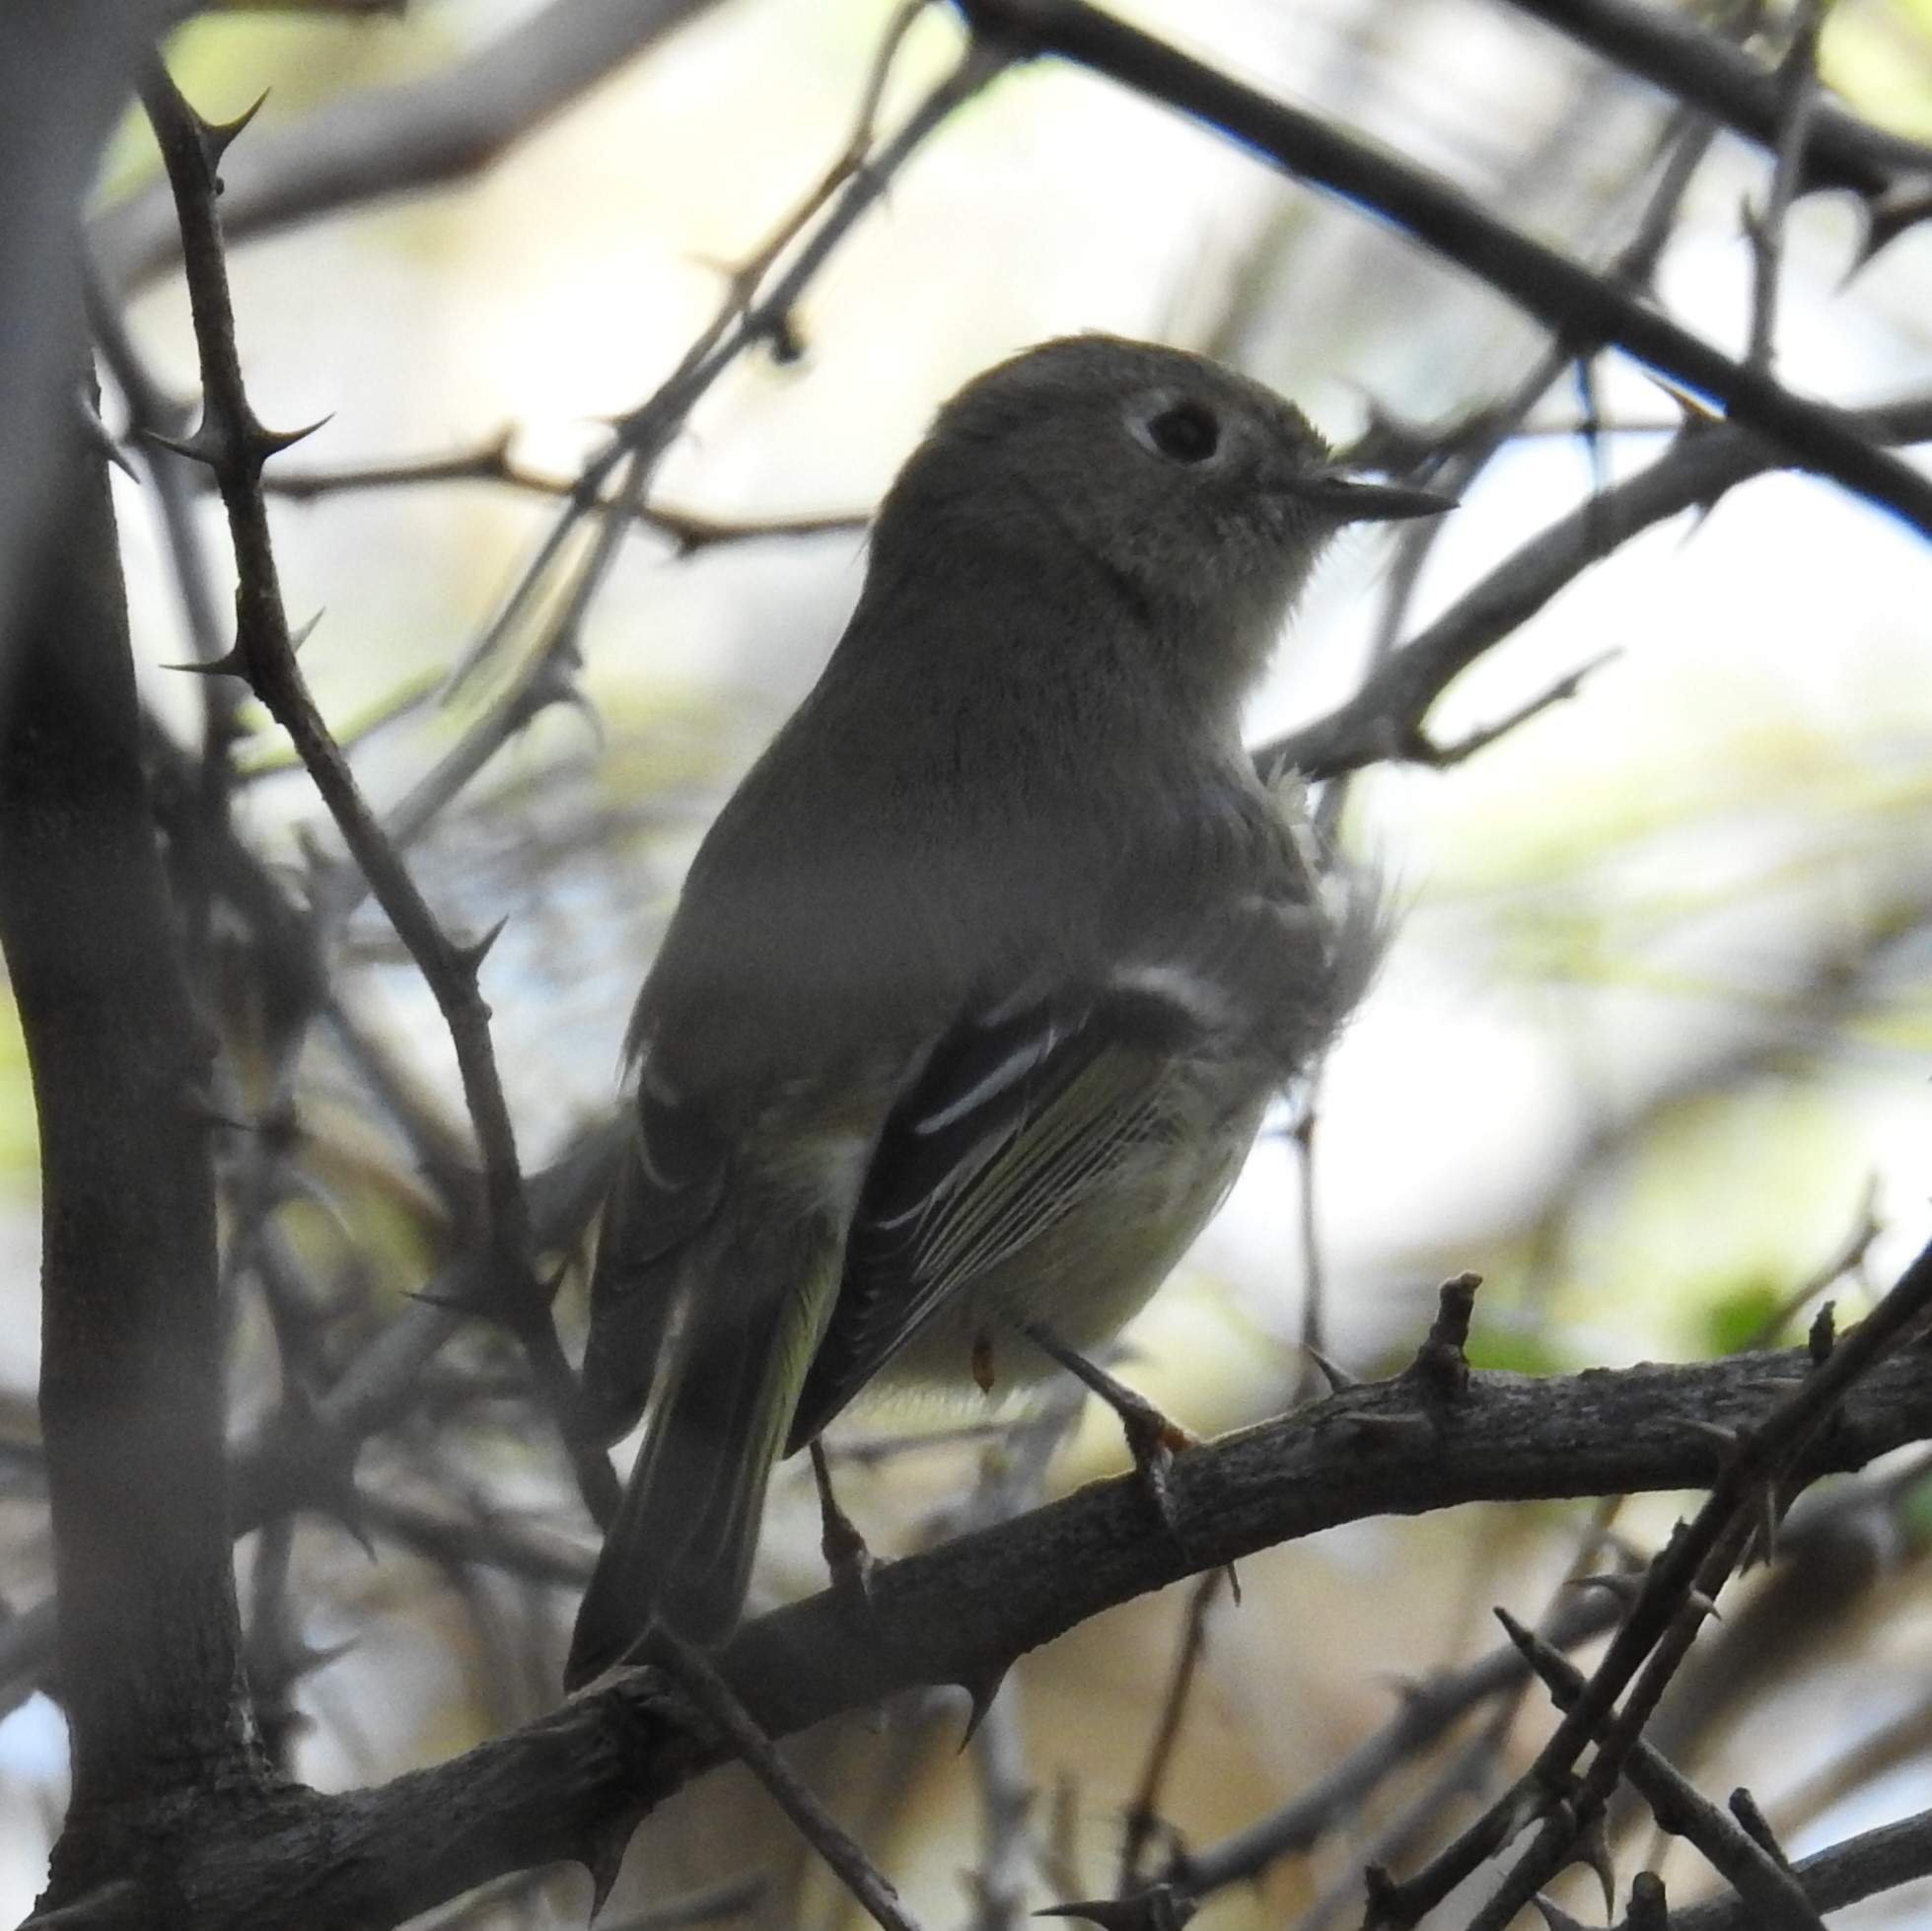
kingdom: Animalia
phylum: Chordata
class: Aves
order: Passeriformes
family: Regulidae
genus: Regulus
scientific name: Regulus calendula
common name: Ruby-crowned kinglet
